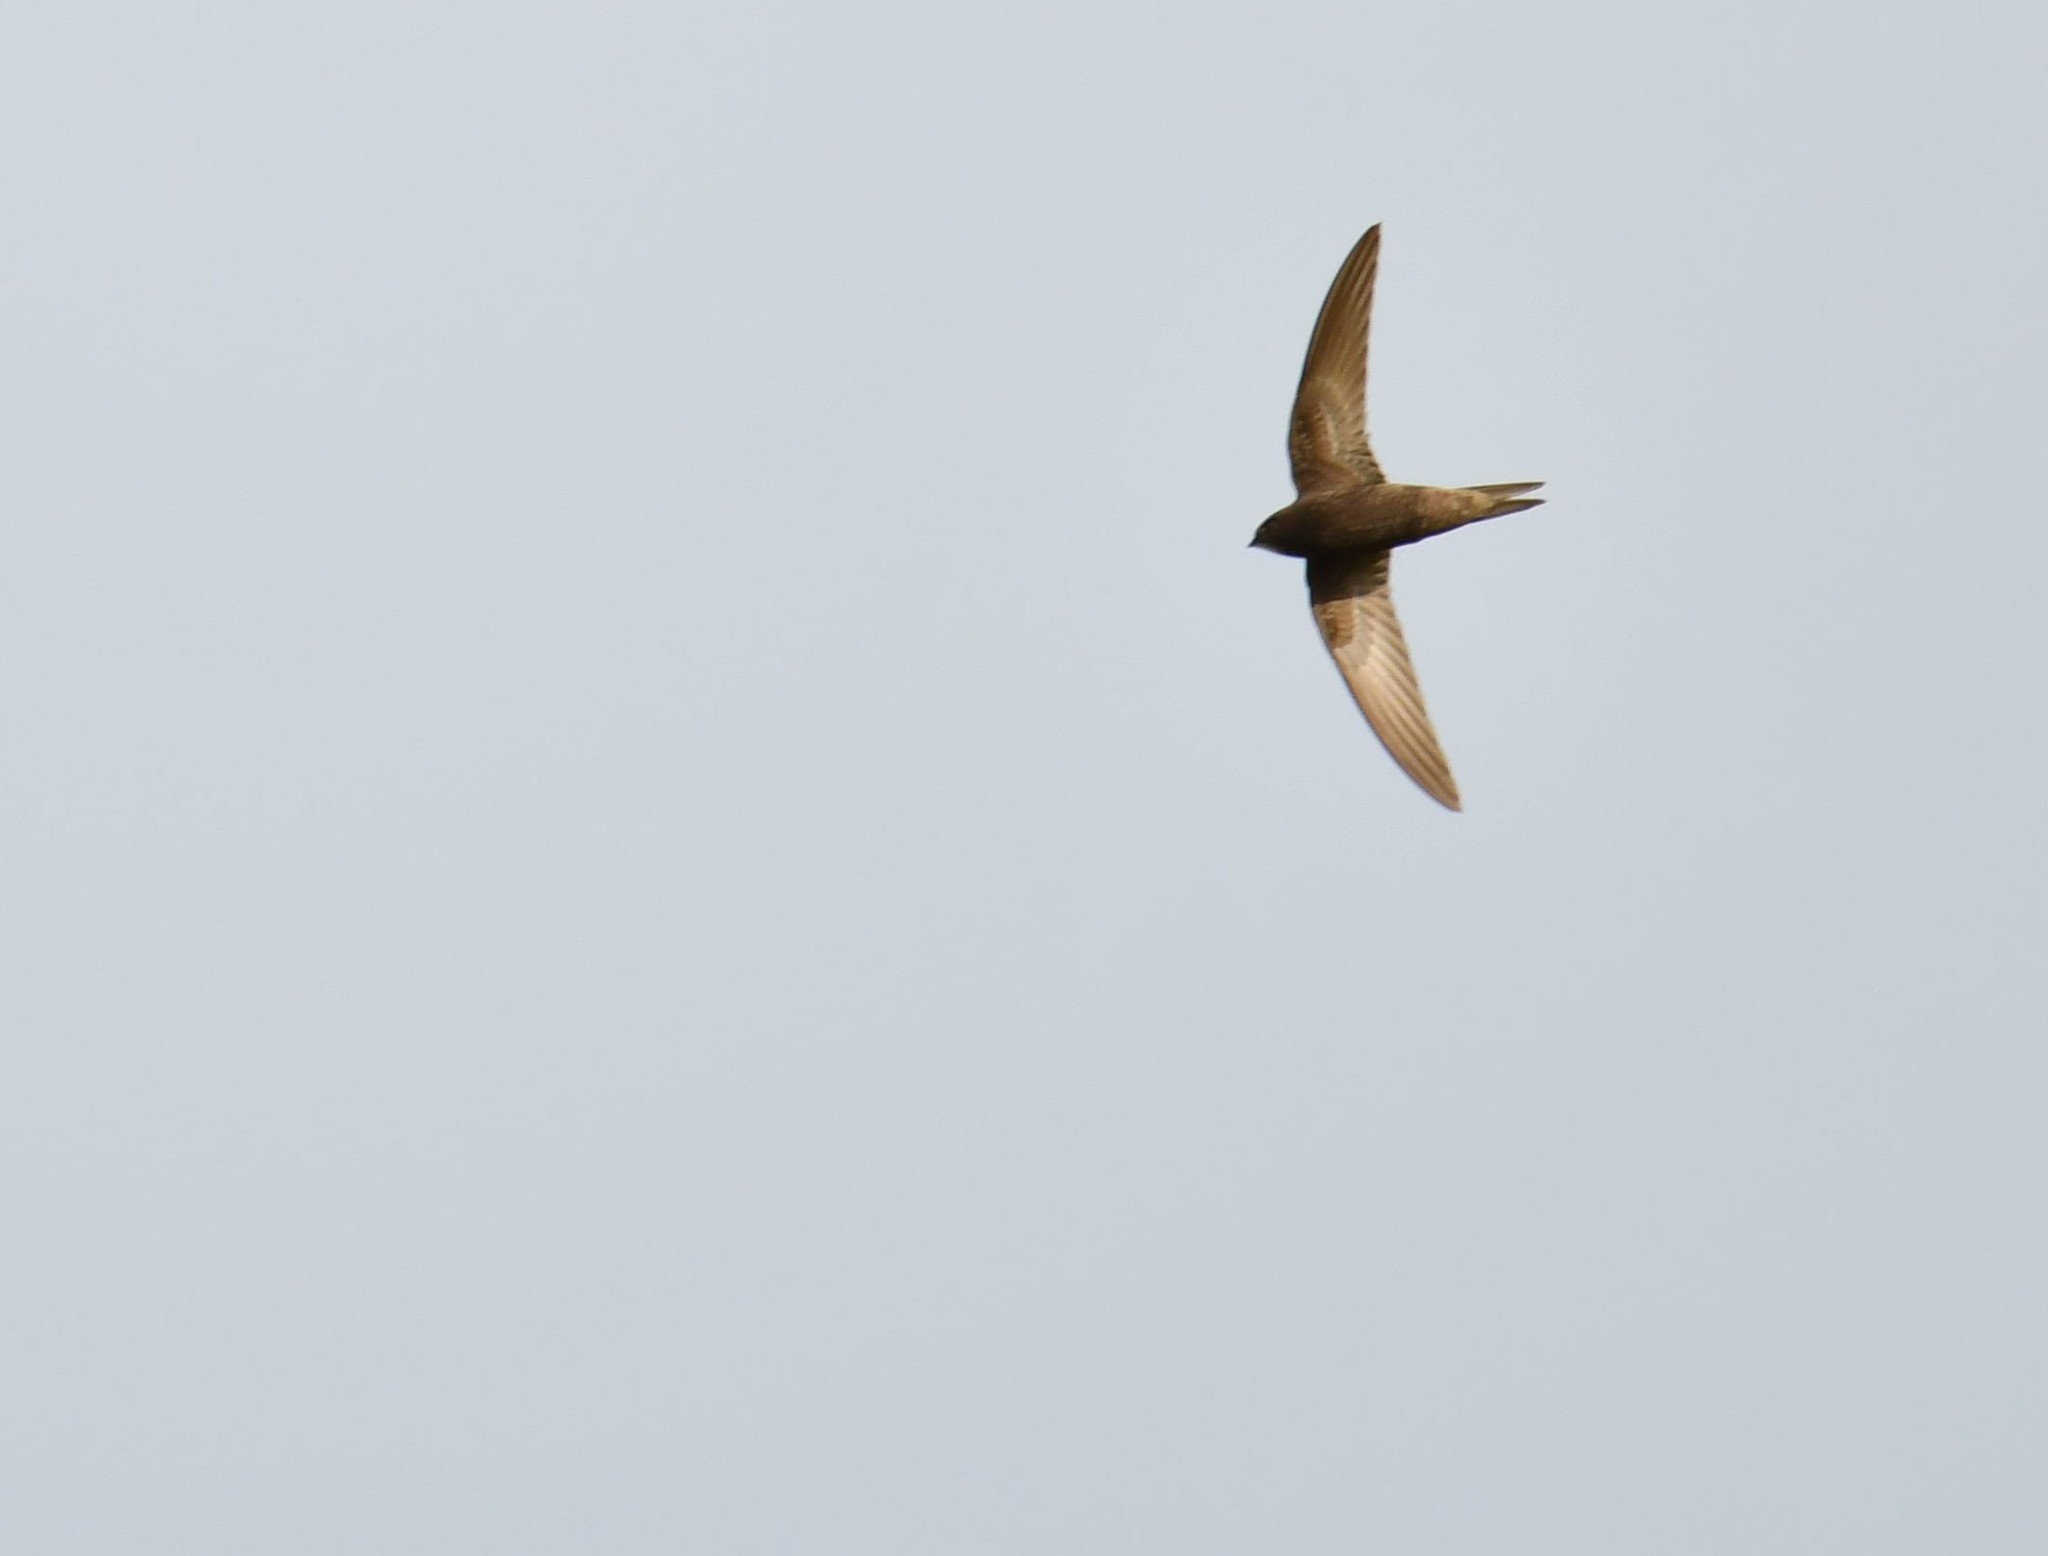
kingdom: Animalia
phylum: Chordata
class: Aves
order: Apodiformes
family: Apodidae
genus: Apus
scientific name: Apus apus
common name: Common swift
